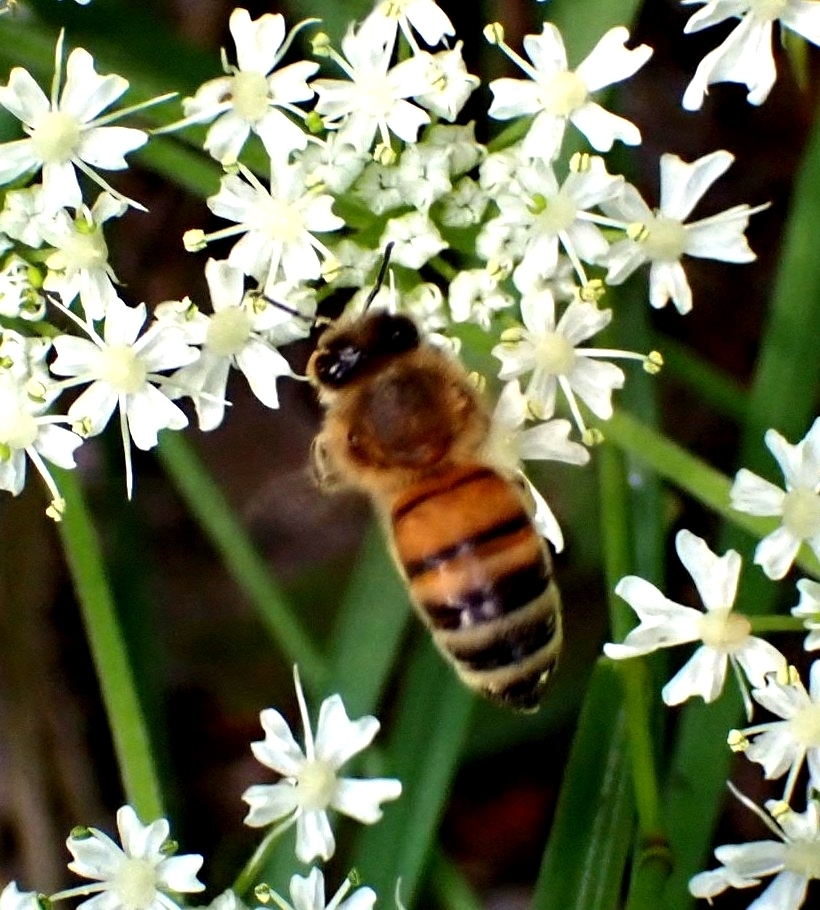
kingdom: Animalia
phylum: Arthropoda
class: Insecta
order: Hymenoptera
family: Apidae
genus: Apis
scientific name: Apis mellifera
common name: Honey bee
